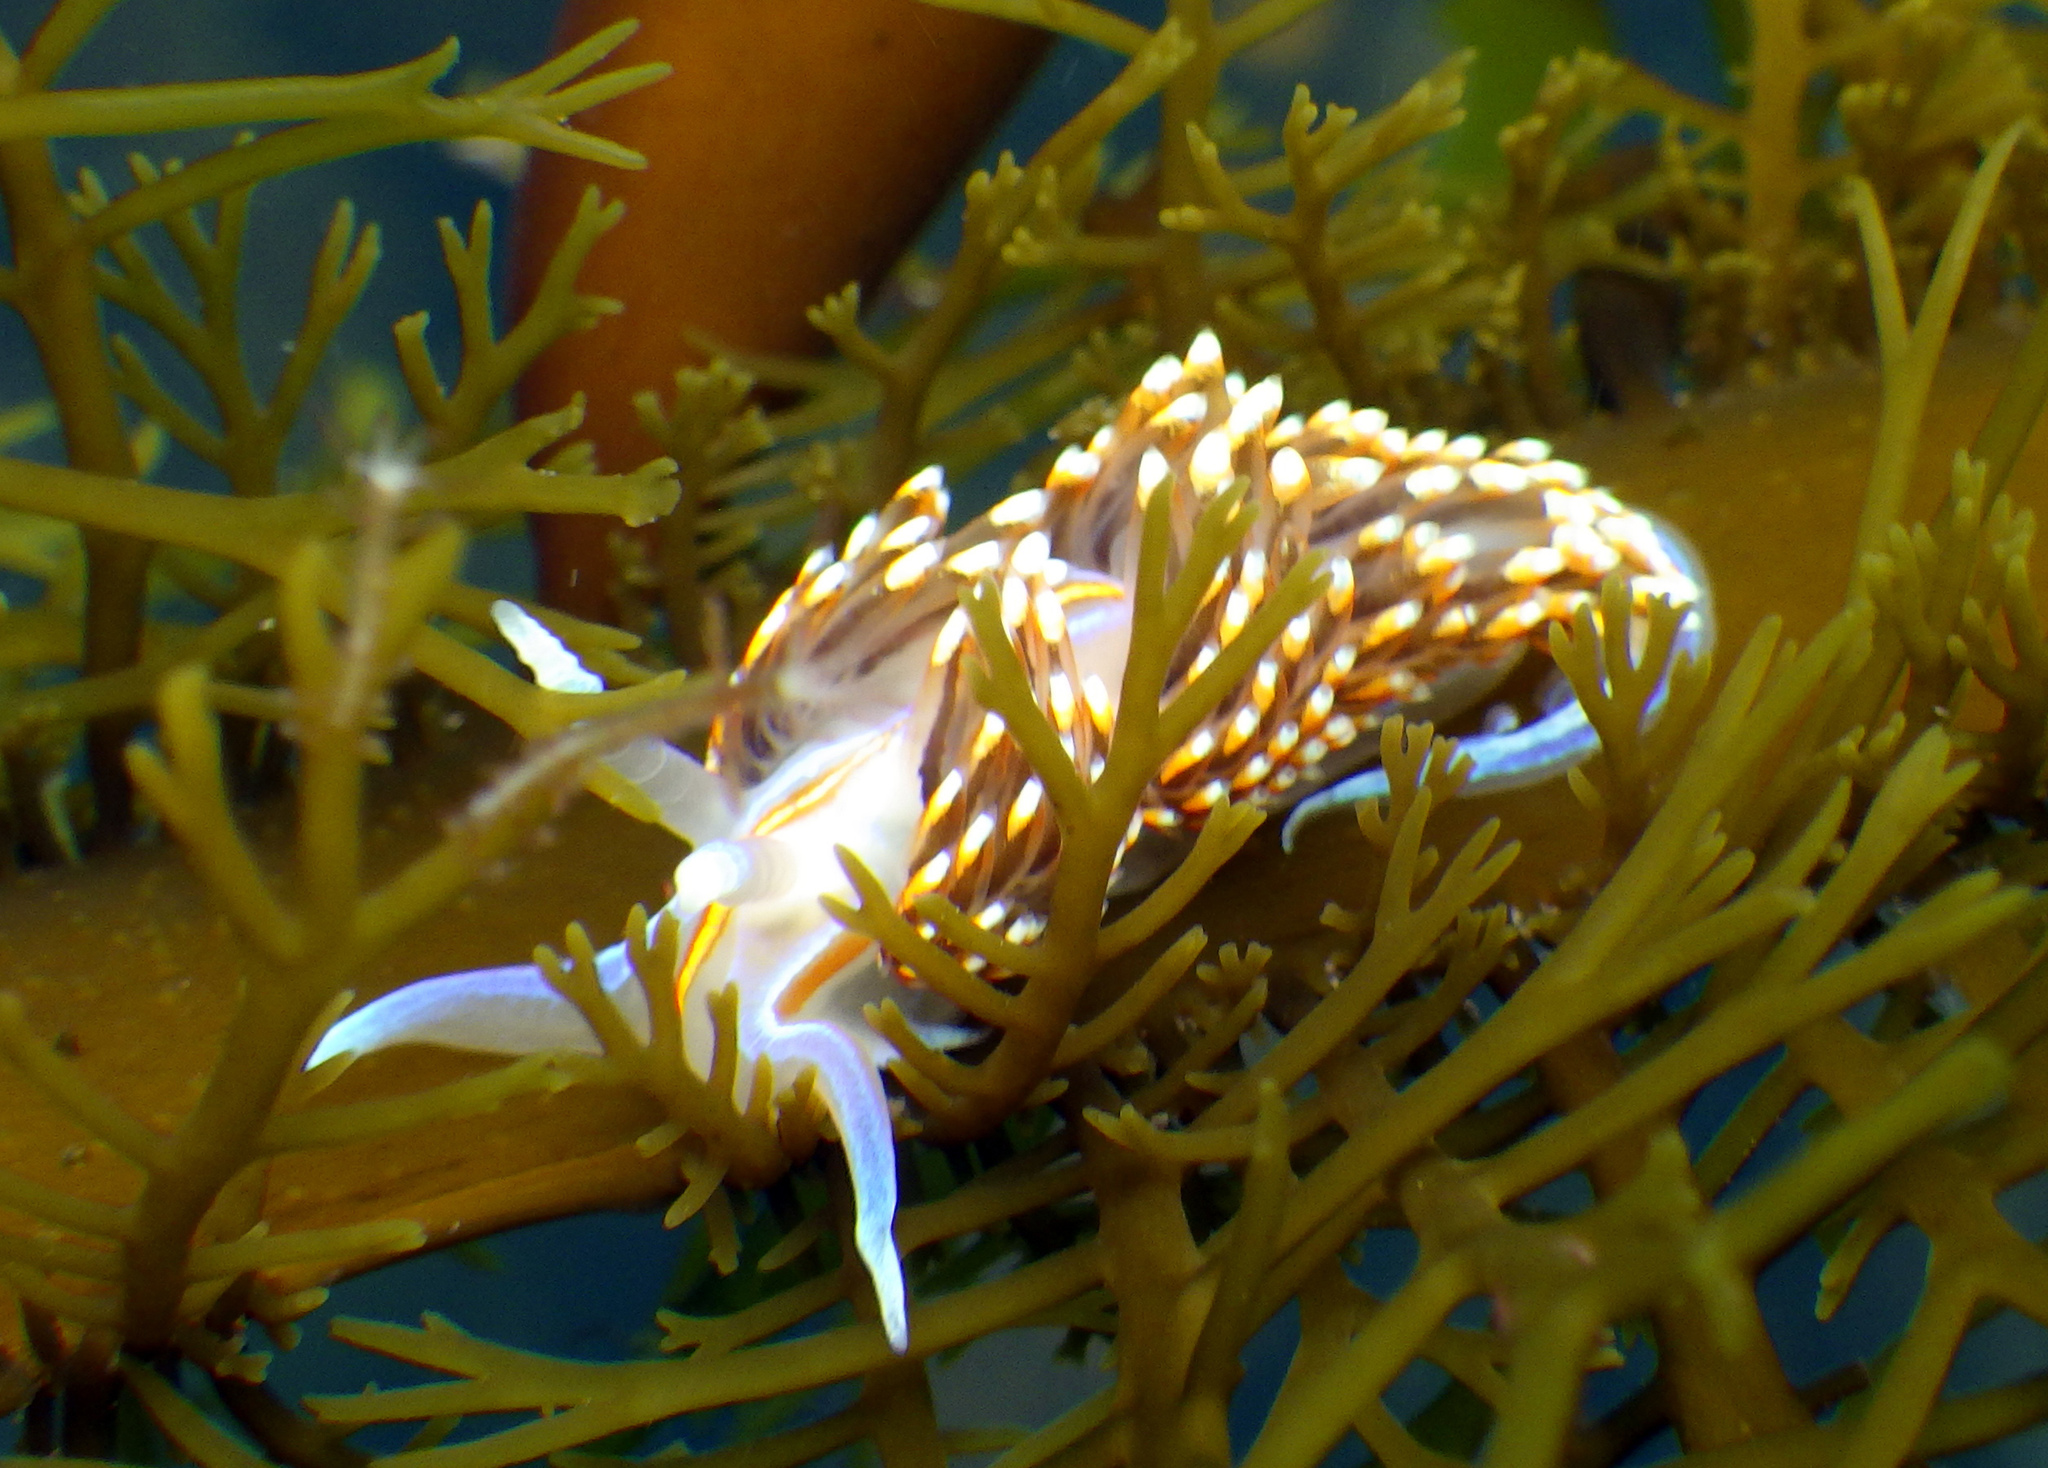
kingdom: Animalia
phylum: Mollusca
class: Gastropoda
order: Nudibranchia
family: Myrrhinidae
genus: Hermissenda
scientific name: Hermissenda opalescens
